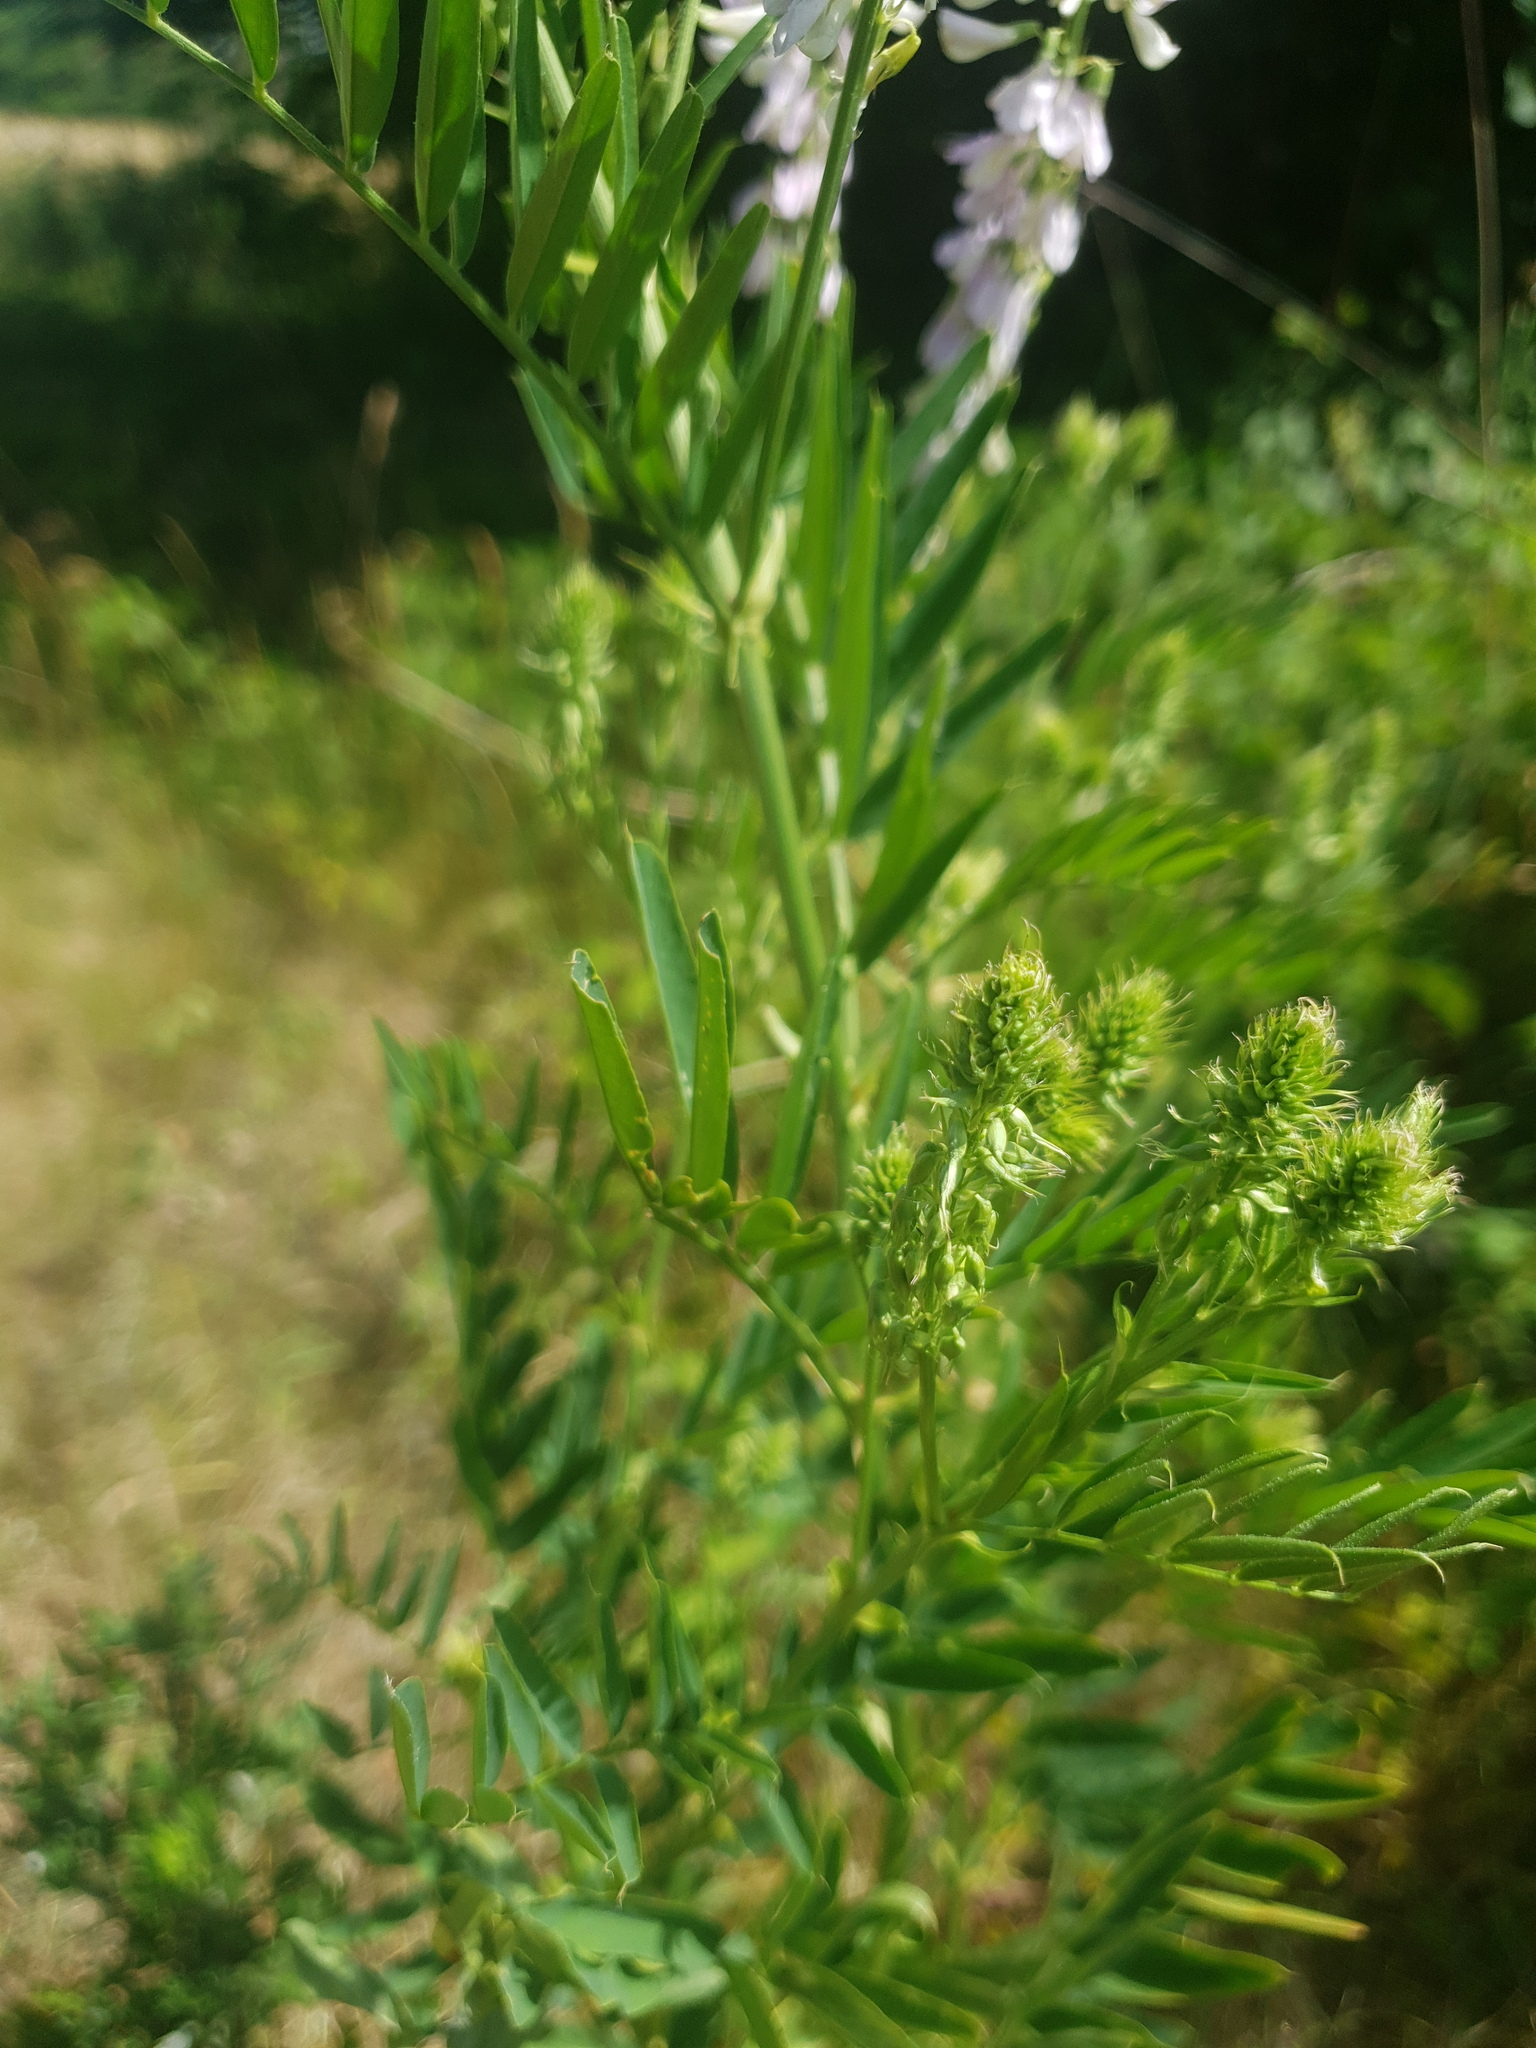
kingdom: Plantae
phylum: Tracheophyta
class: Magnoliopsida
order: Fabales
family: Fabaceae
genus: Galega
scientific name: Galega officinalis
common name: Goat's-rue
